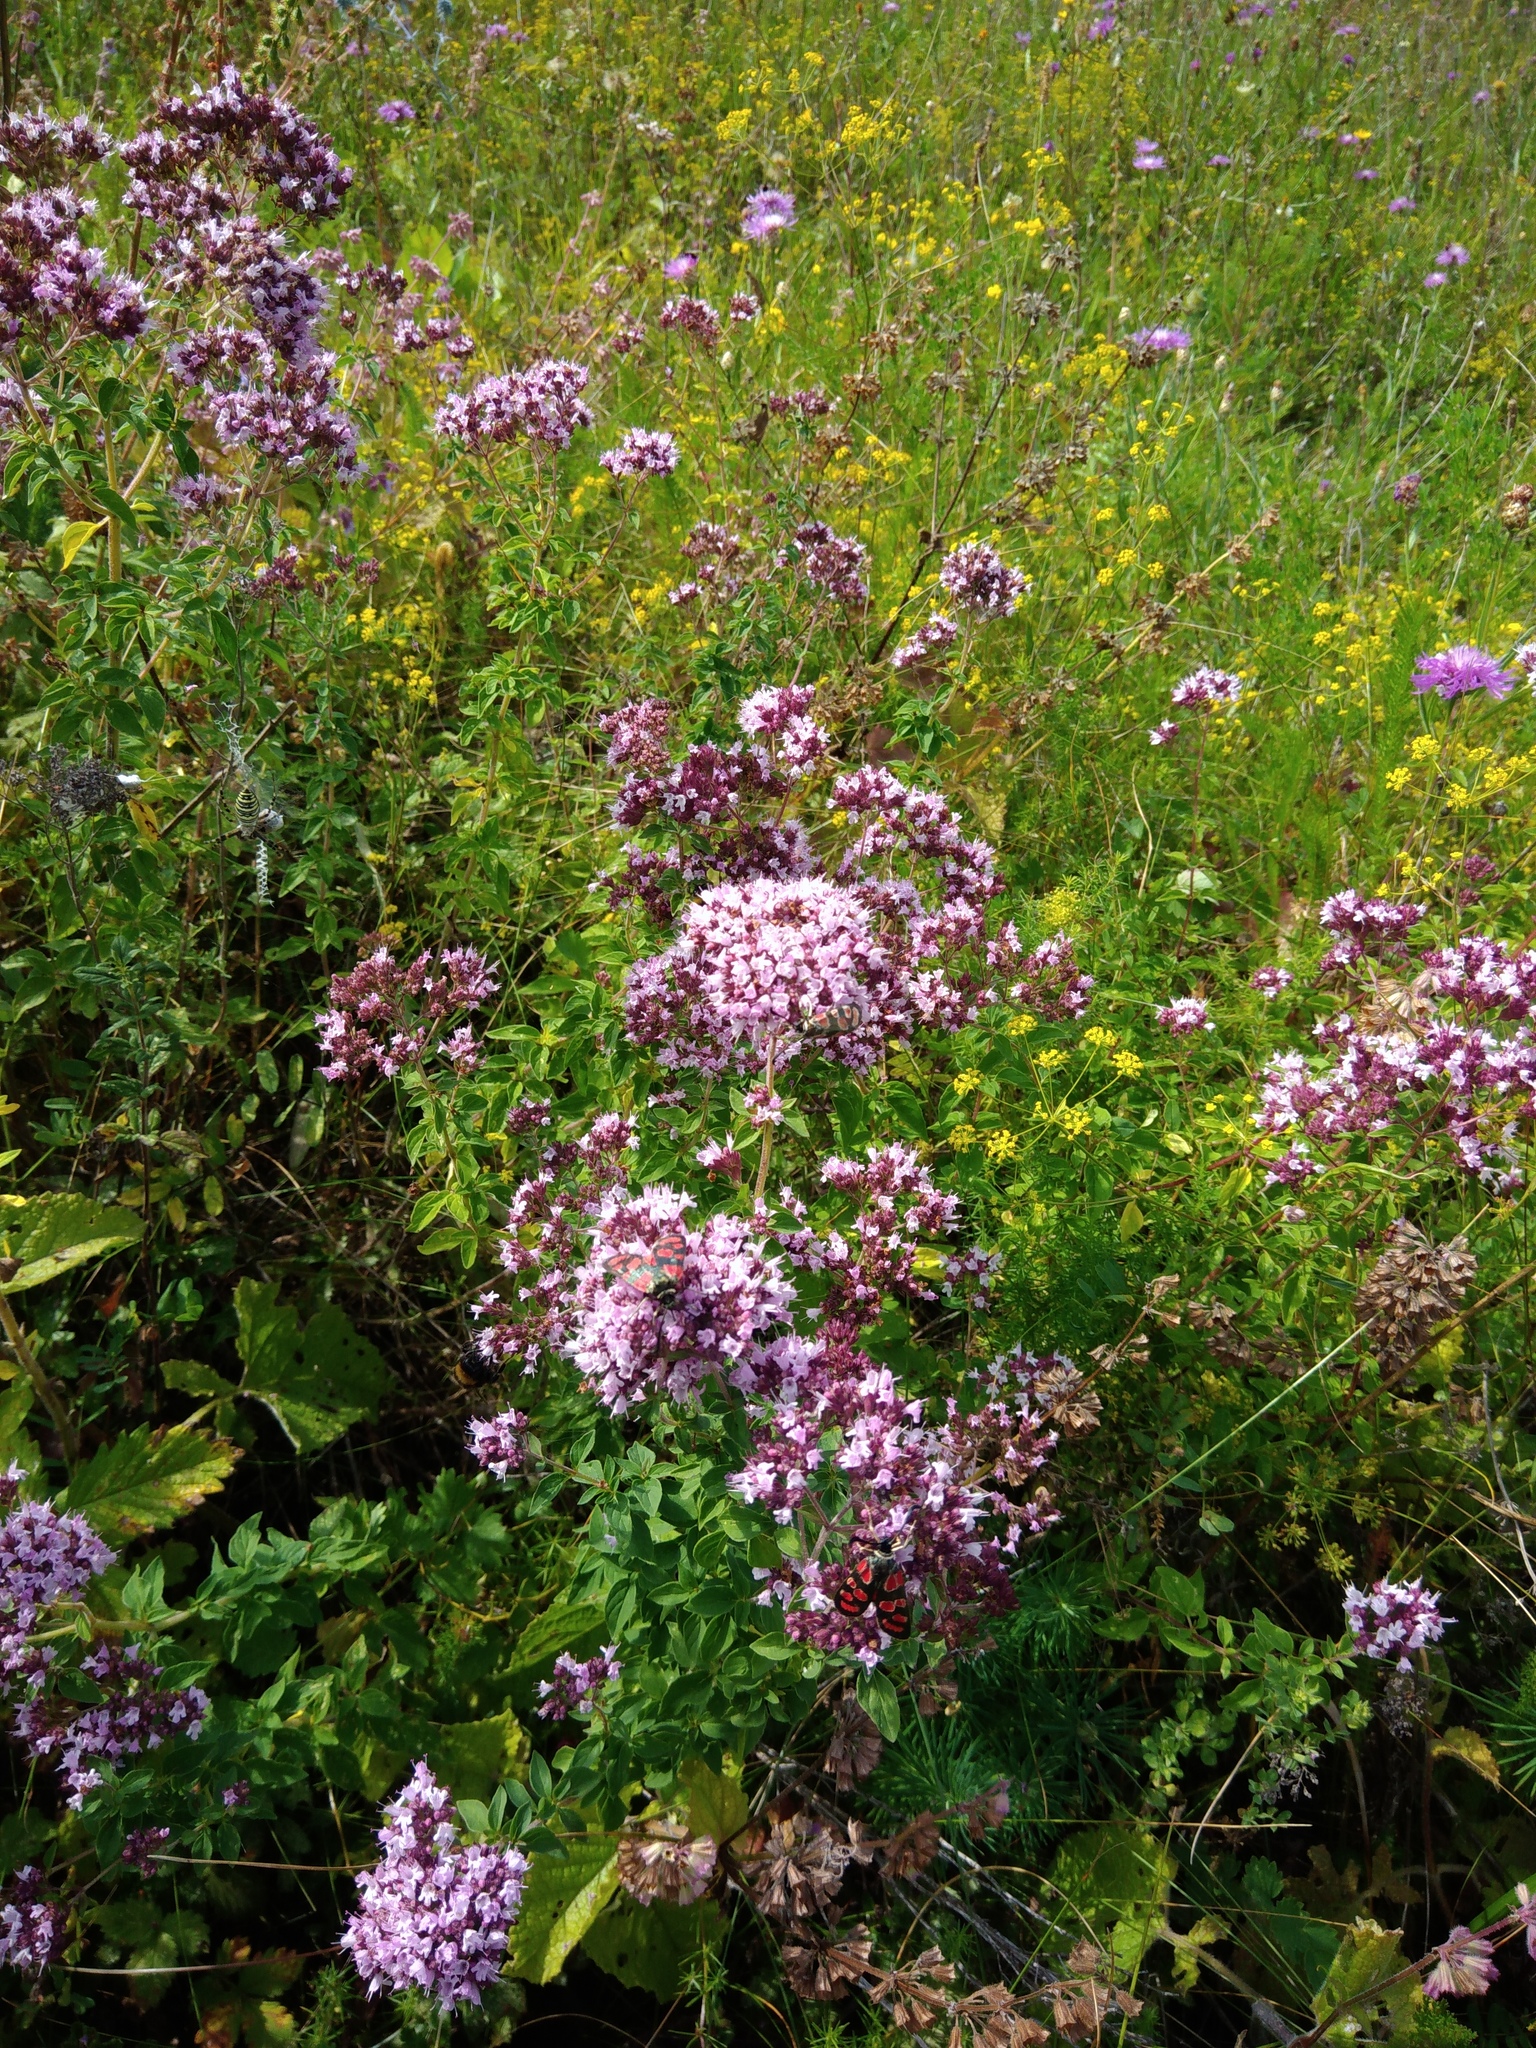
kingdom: Plantae
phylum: Tracheophyta
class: Magnoliopsida
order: Lamiales
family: Lamiaceae
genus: Origanum
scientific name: Origanum vulgare
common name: Wild marjoram
